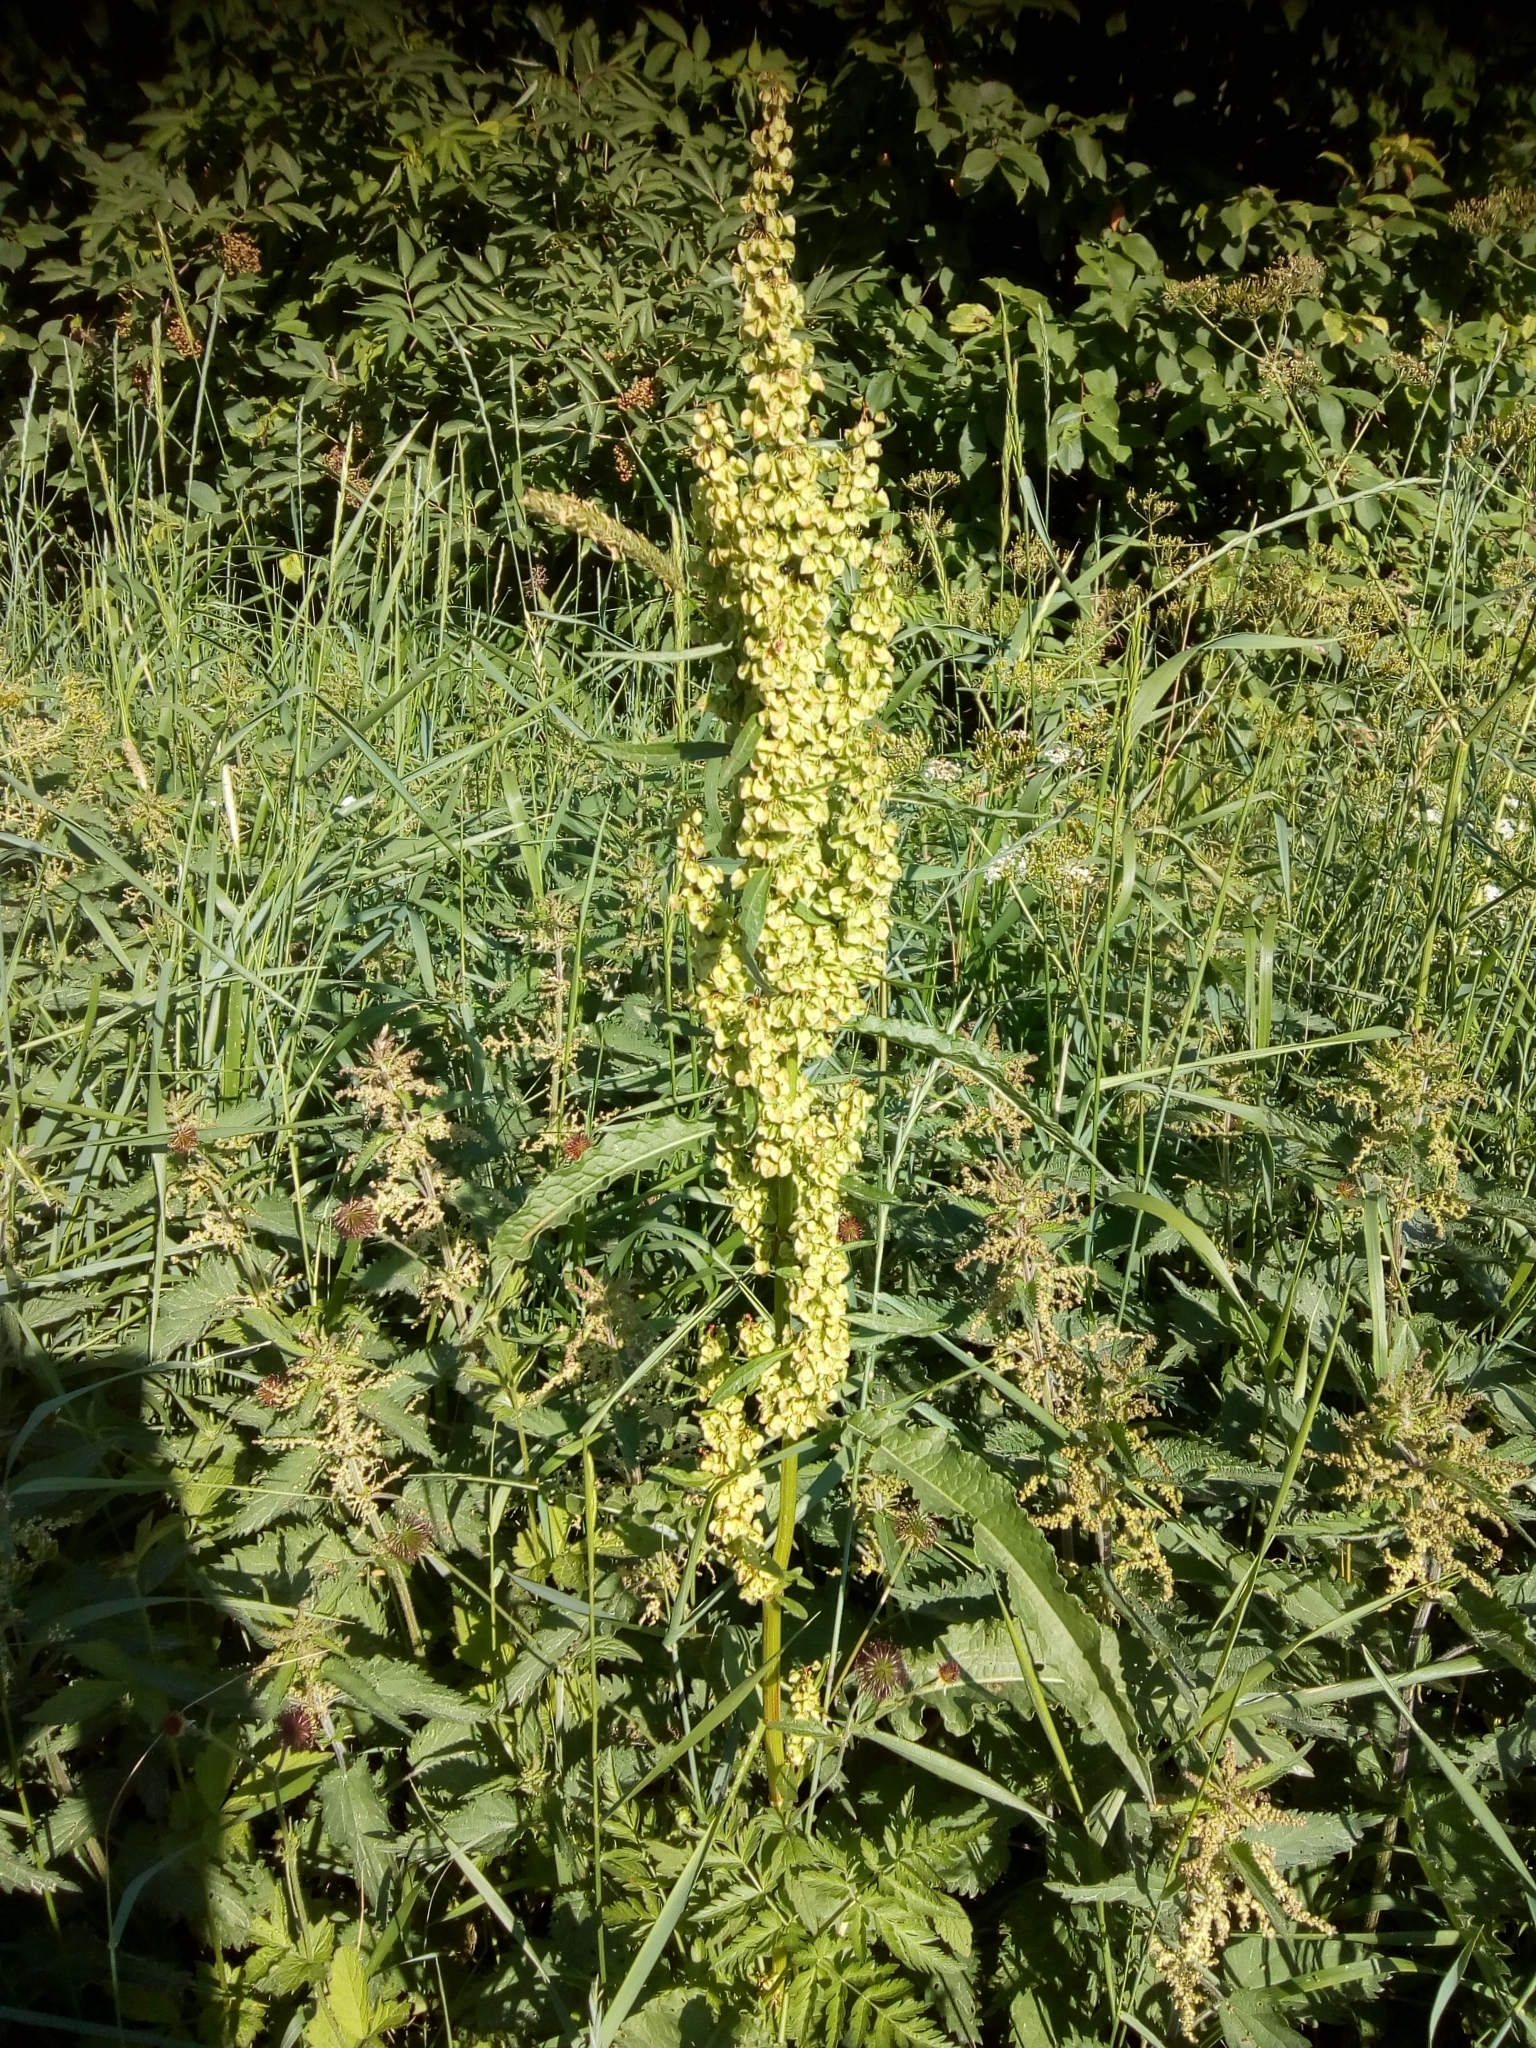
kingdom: Plantae
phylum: Tracheophyta
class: Magnoliopsida
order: Caryophyllales
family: Polygonaceae
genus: Rumex
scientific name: Rumex longifolius
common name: Dooryard dock
